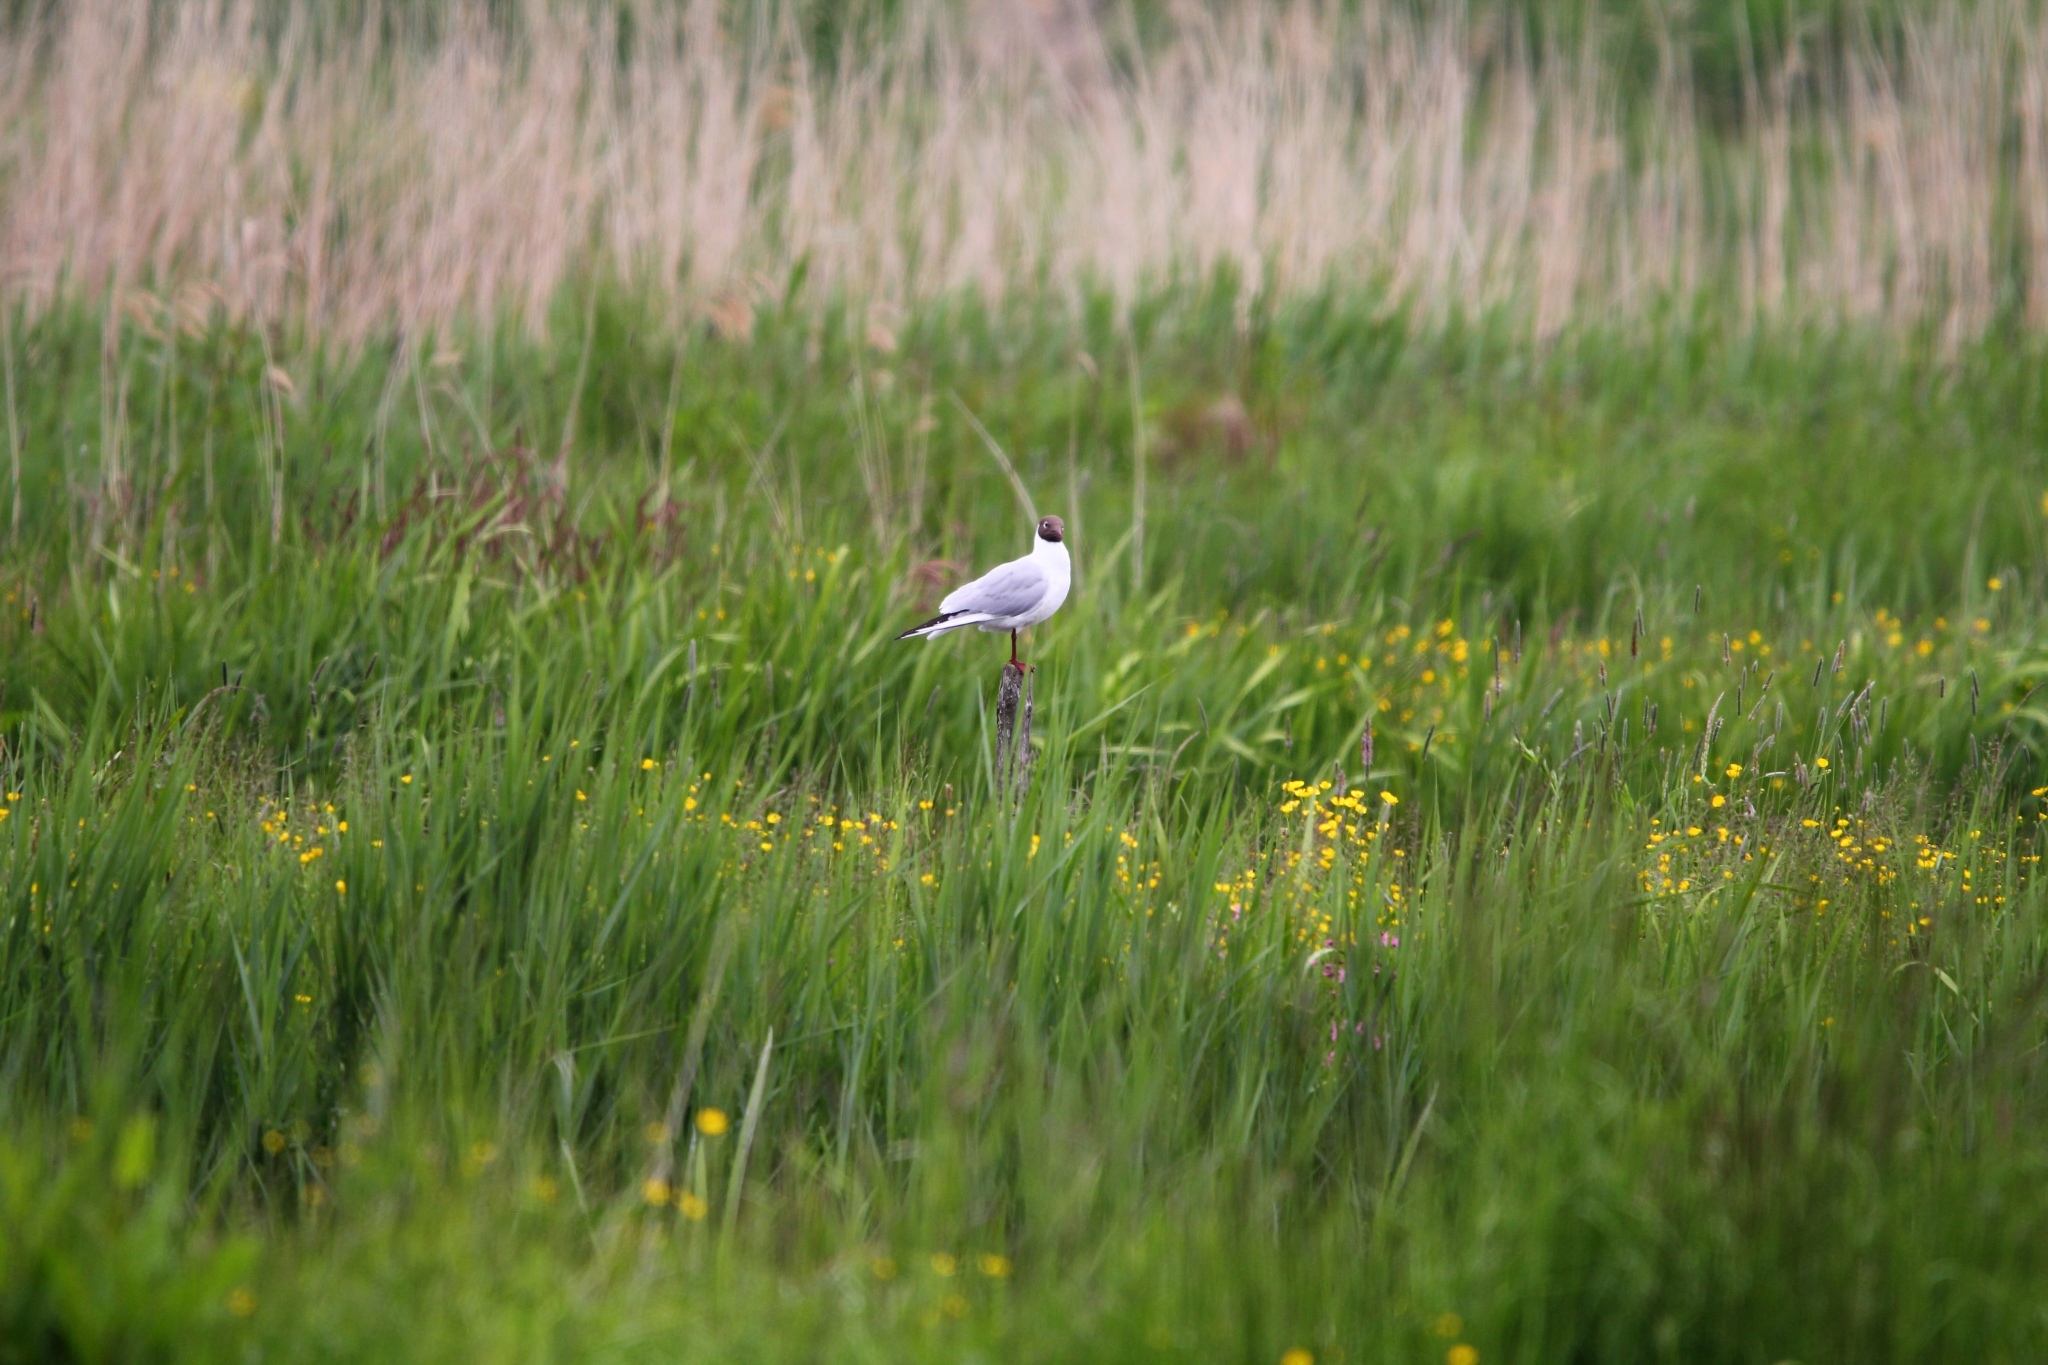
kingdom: Animalia
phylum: Chordata
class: Aves
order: Charadriiformes
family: Laridae
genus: Chroicocephalus
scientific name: Chroicocephalus ridibundus
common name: Black-headed gull
